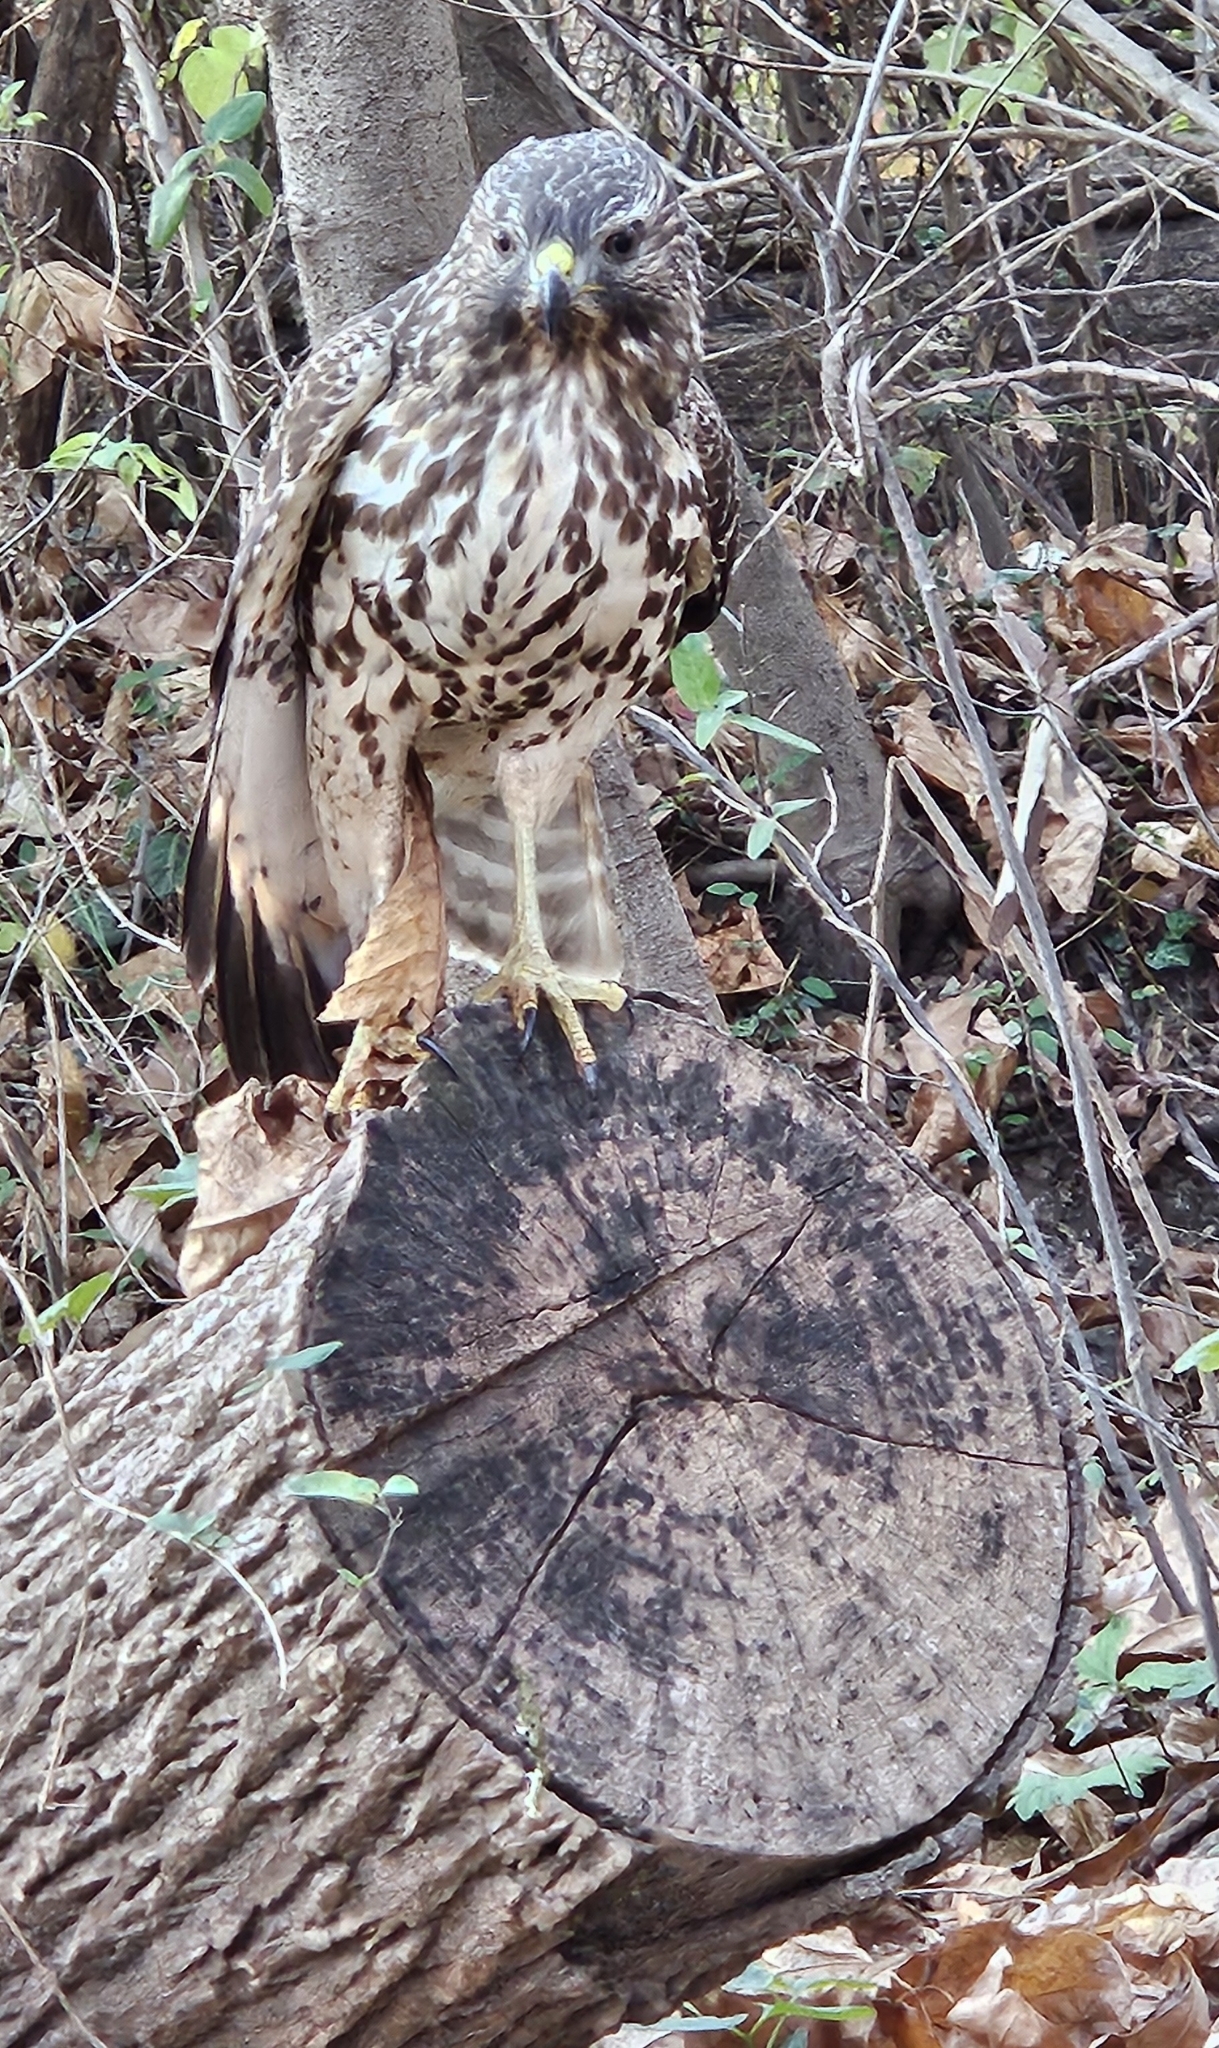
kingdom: Animalia
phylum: Chordata
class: Aves
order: Accipitriformes
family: Accipitridae
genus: Buteo
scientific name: Buteo lineatus
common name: Red-shouldered hawk
